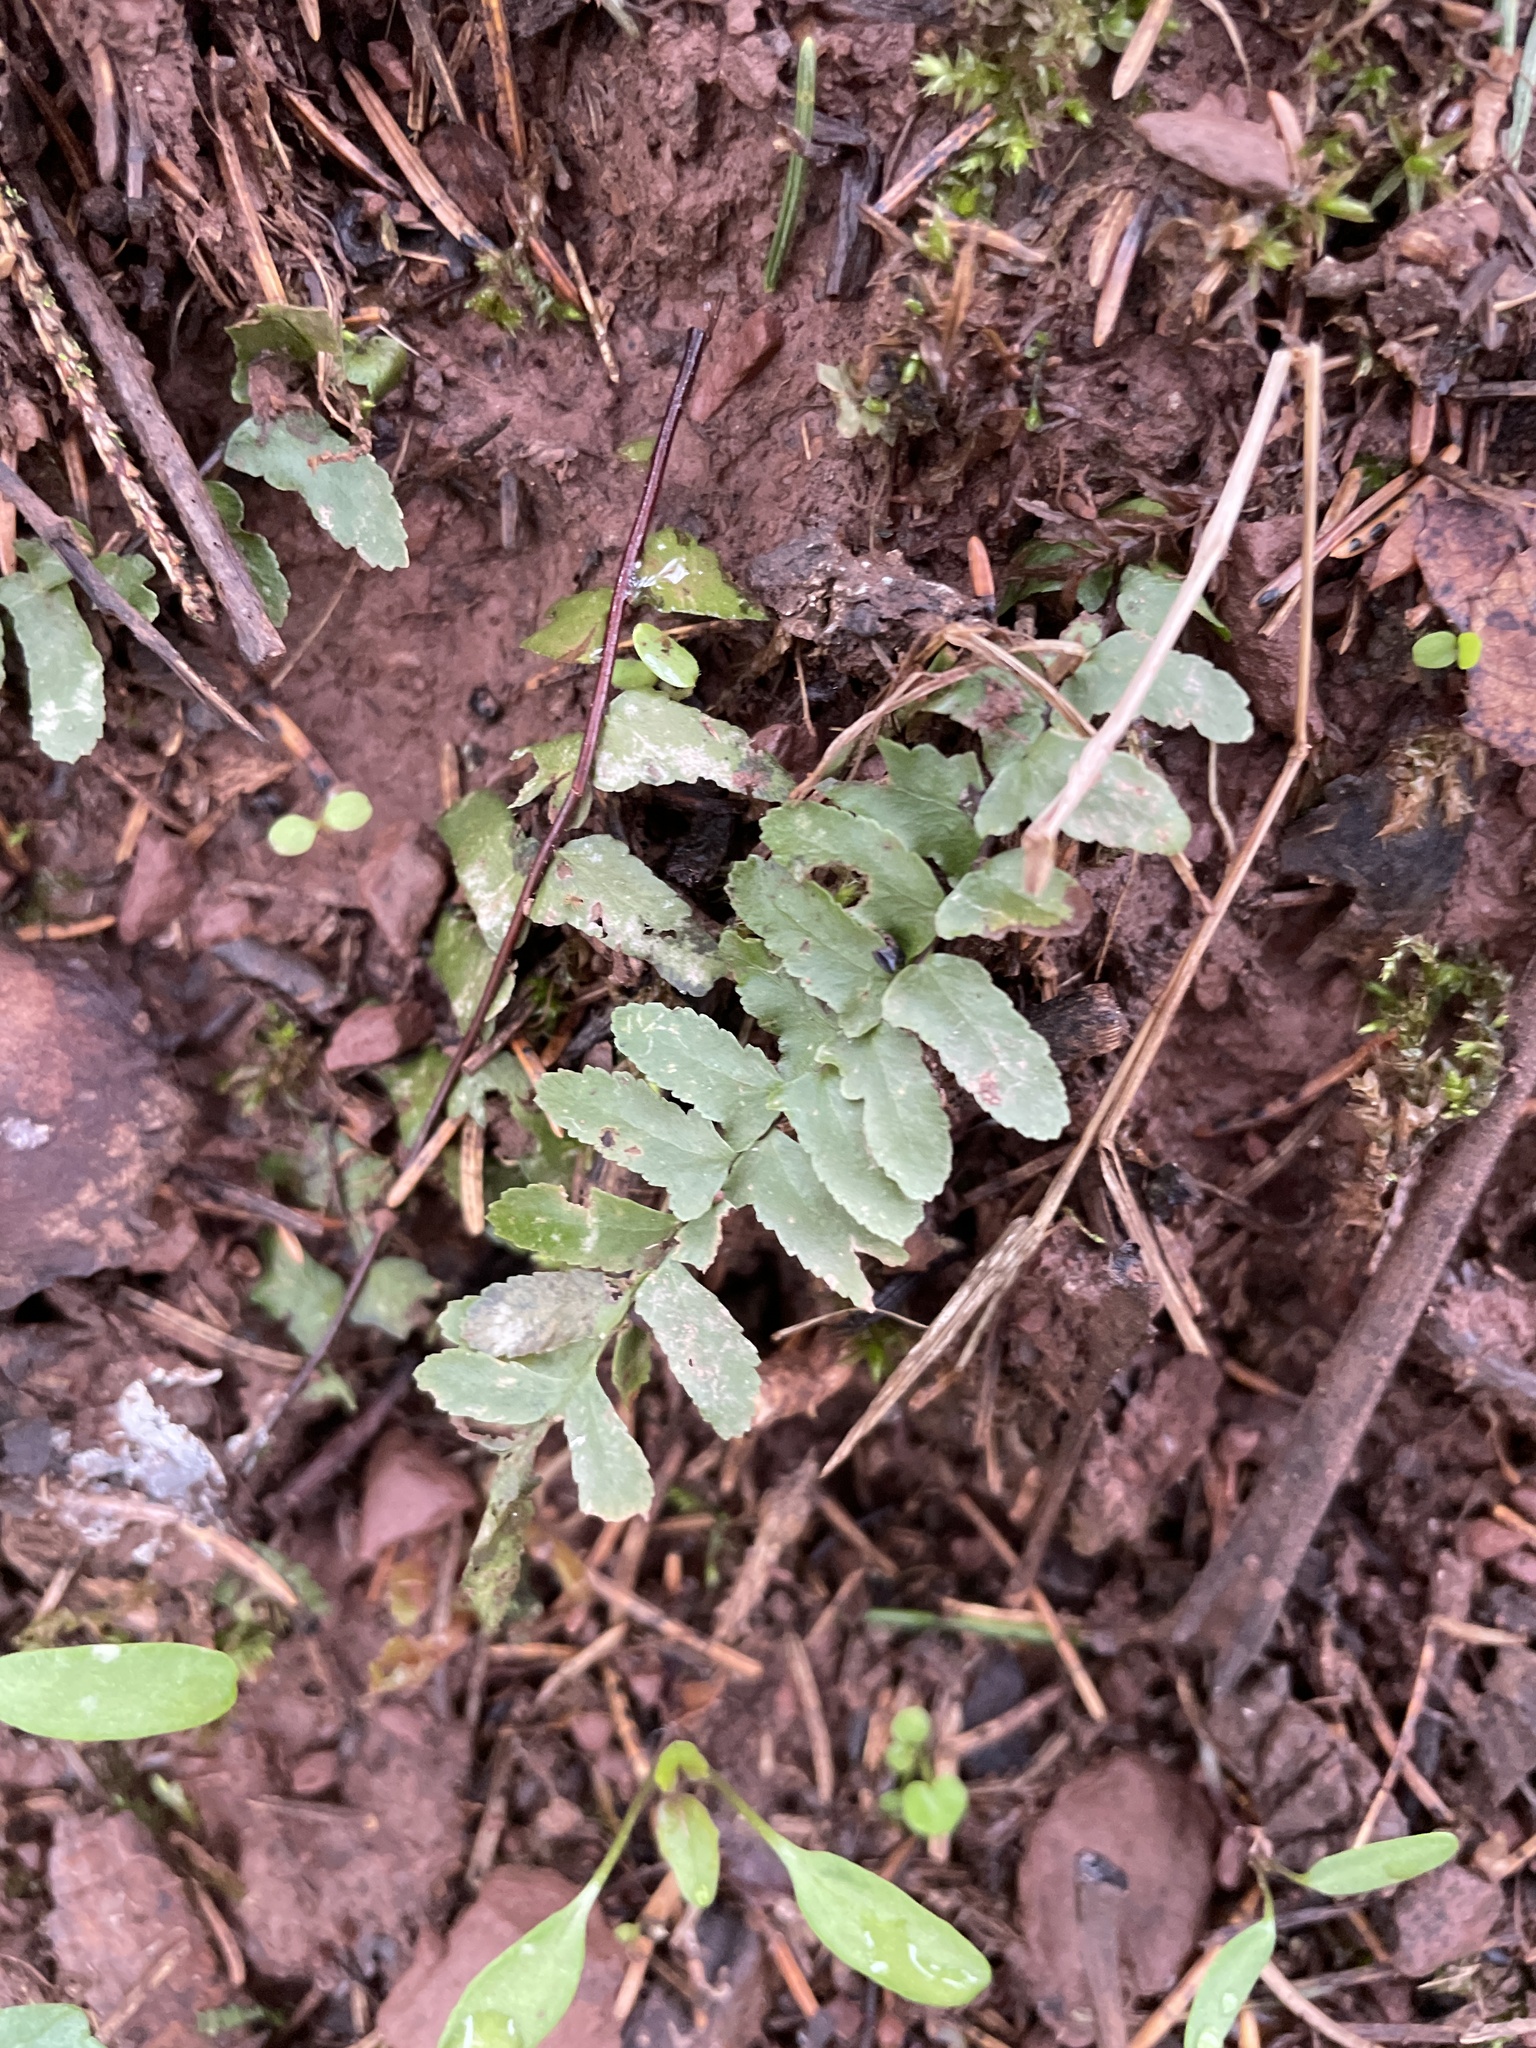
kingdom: Plantae
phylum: Tracheophyta
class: Polypodiopsida
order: Polypodiales
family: Aspleniaceae
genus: Asplenium
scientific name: Asplenium platyneuron
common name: Ebony spleenwort
